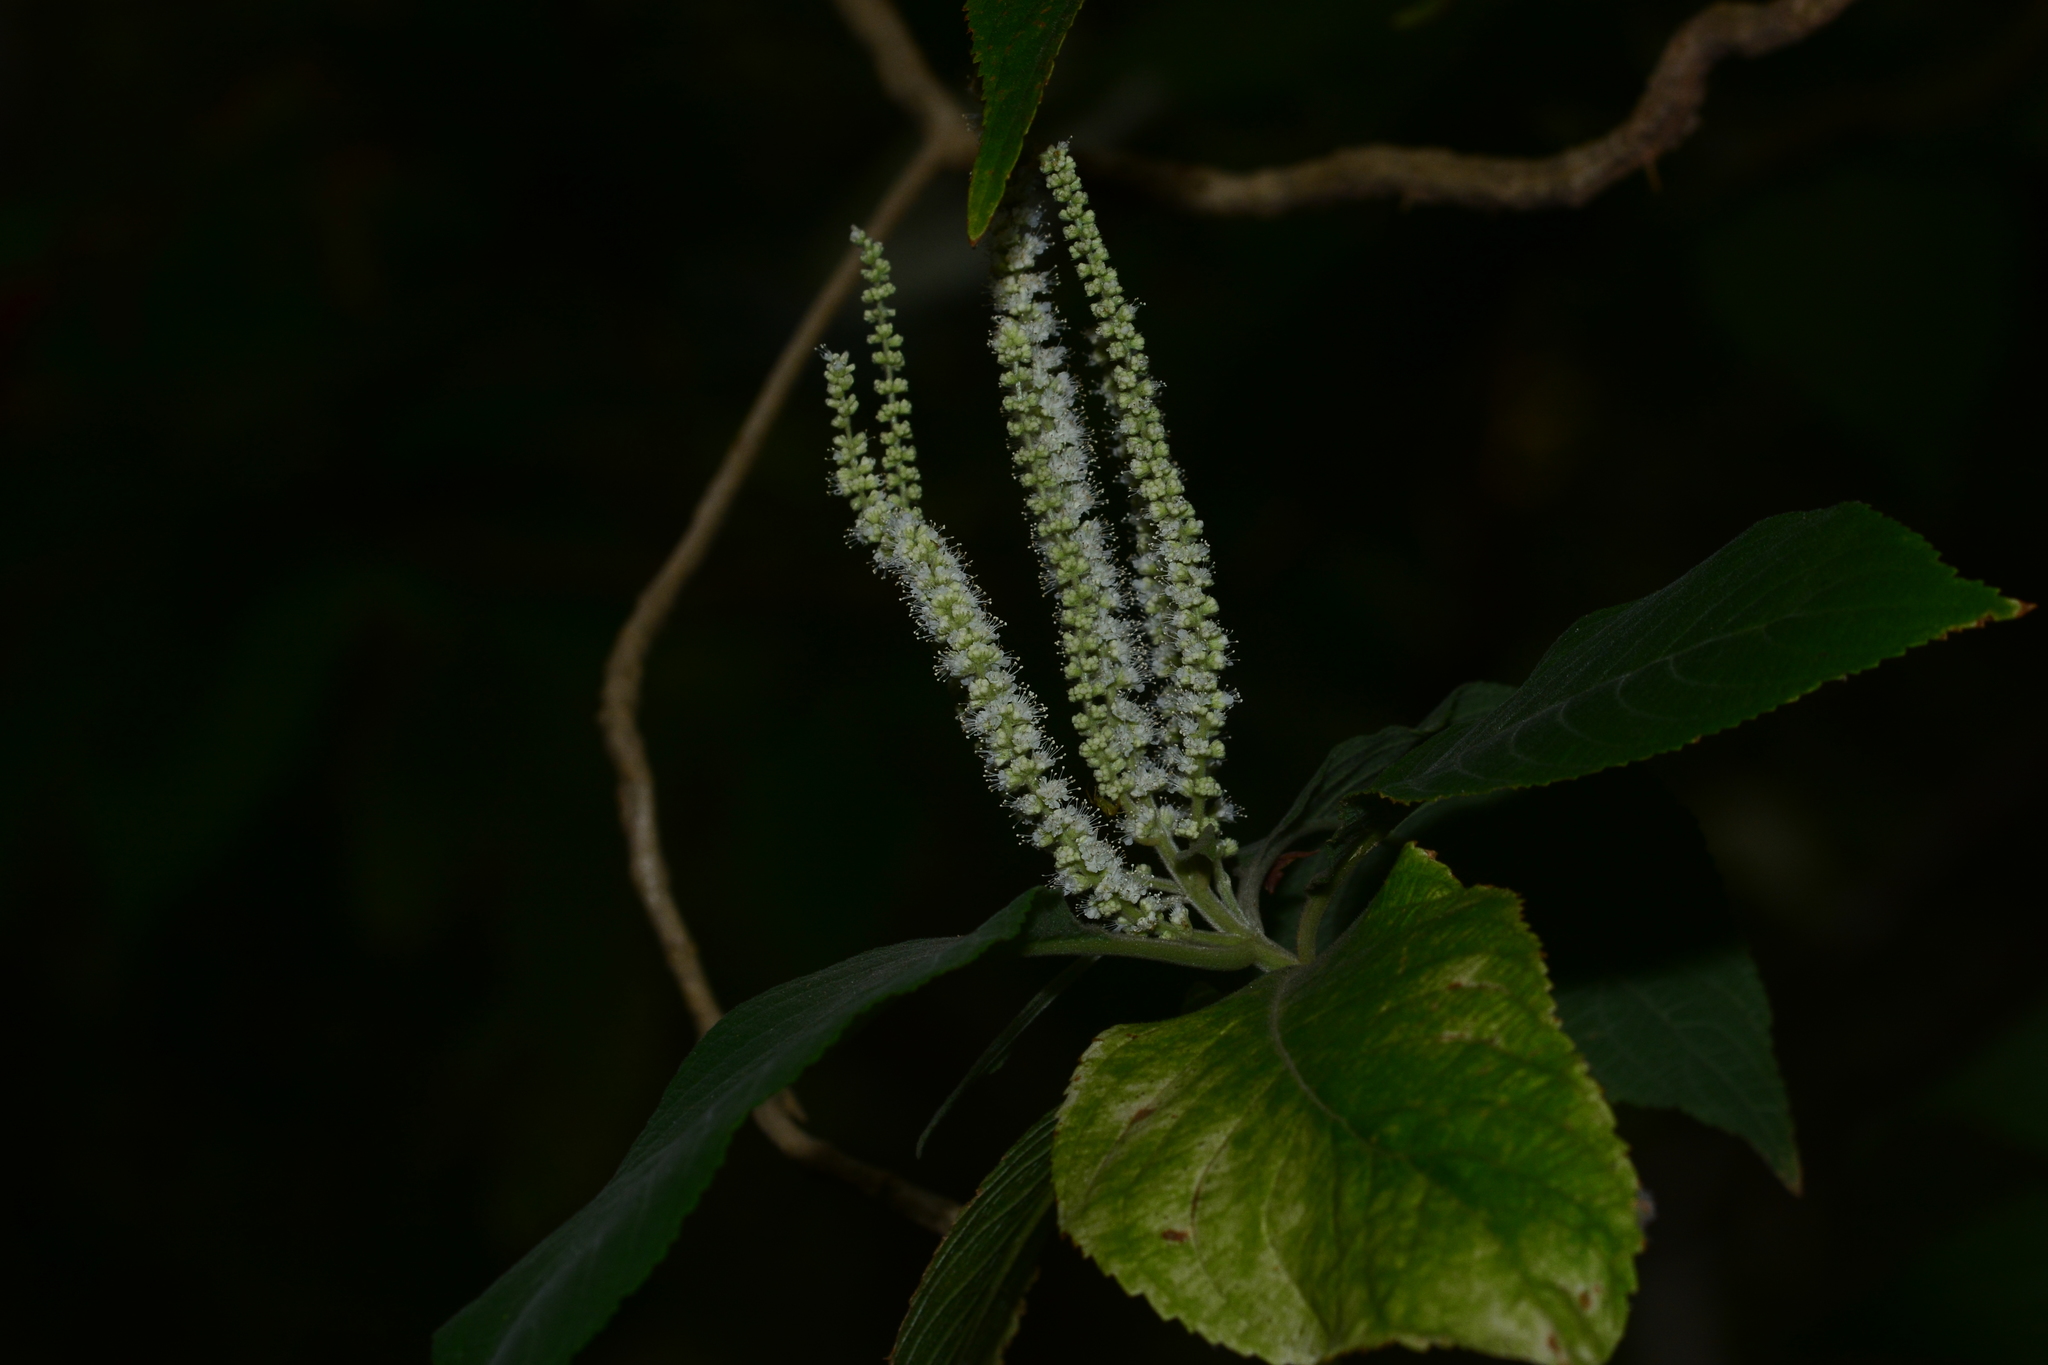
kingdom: Plantae
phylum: Tracheophyta
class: Magnoliopsida
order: Lamiales
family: Lamiaceae
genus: Colebrookea
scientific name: Colebrookea oppositifolia
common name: Indian squirrel tail
